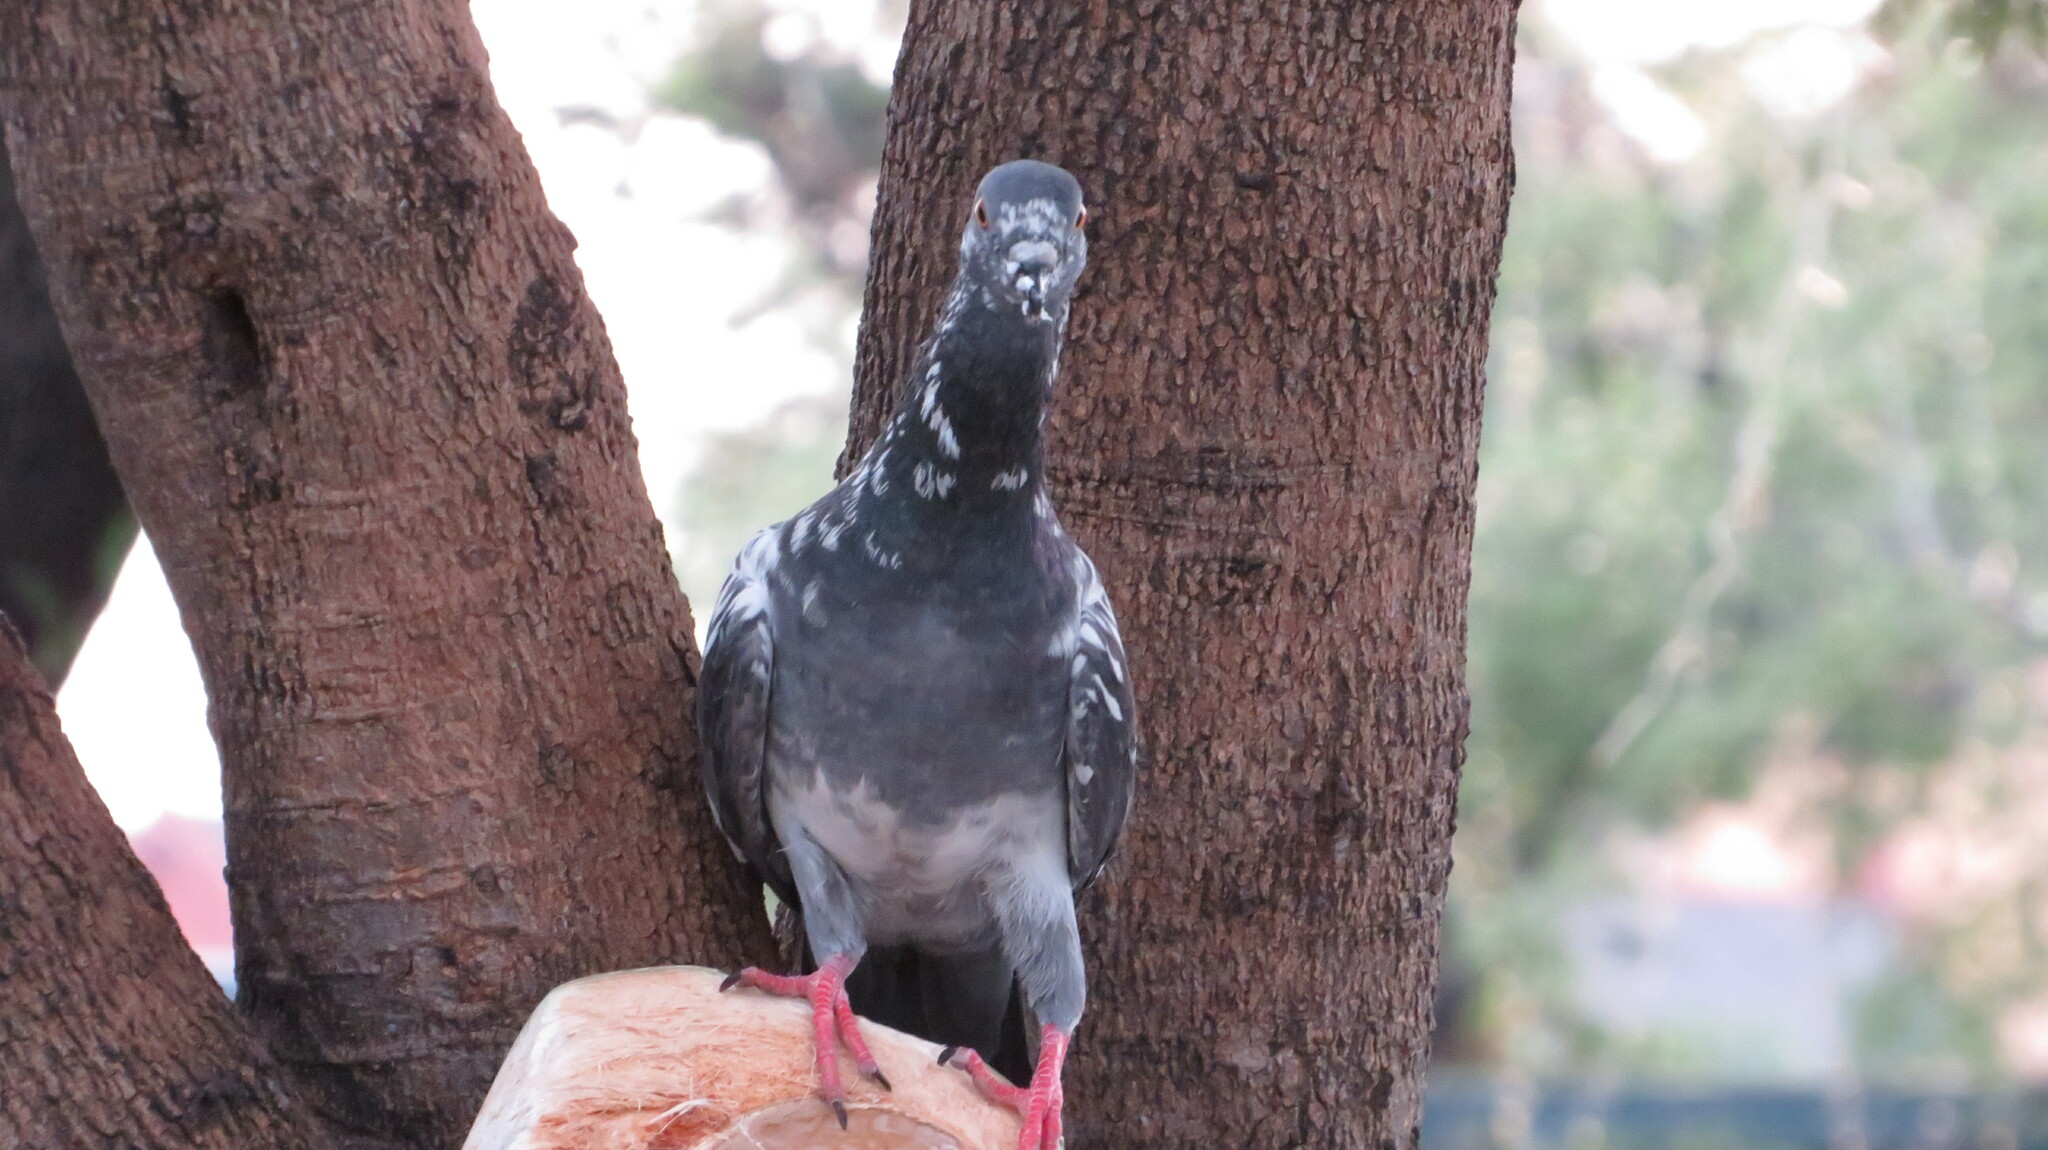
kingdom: Animalia
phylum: Chordata
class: Aves
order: Columbiformes
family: Columbidae
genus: Columba
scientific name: Columba livia
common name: Rock pigeon
